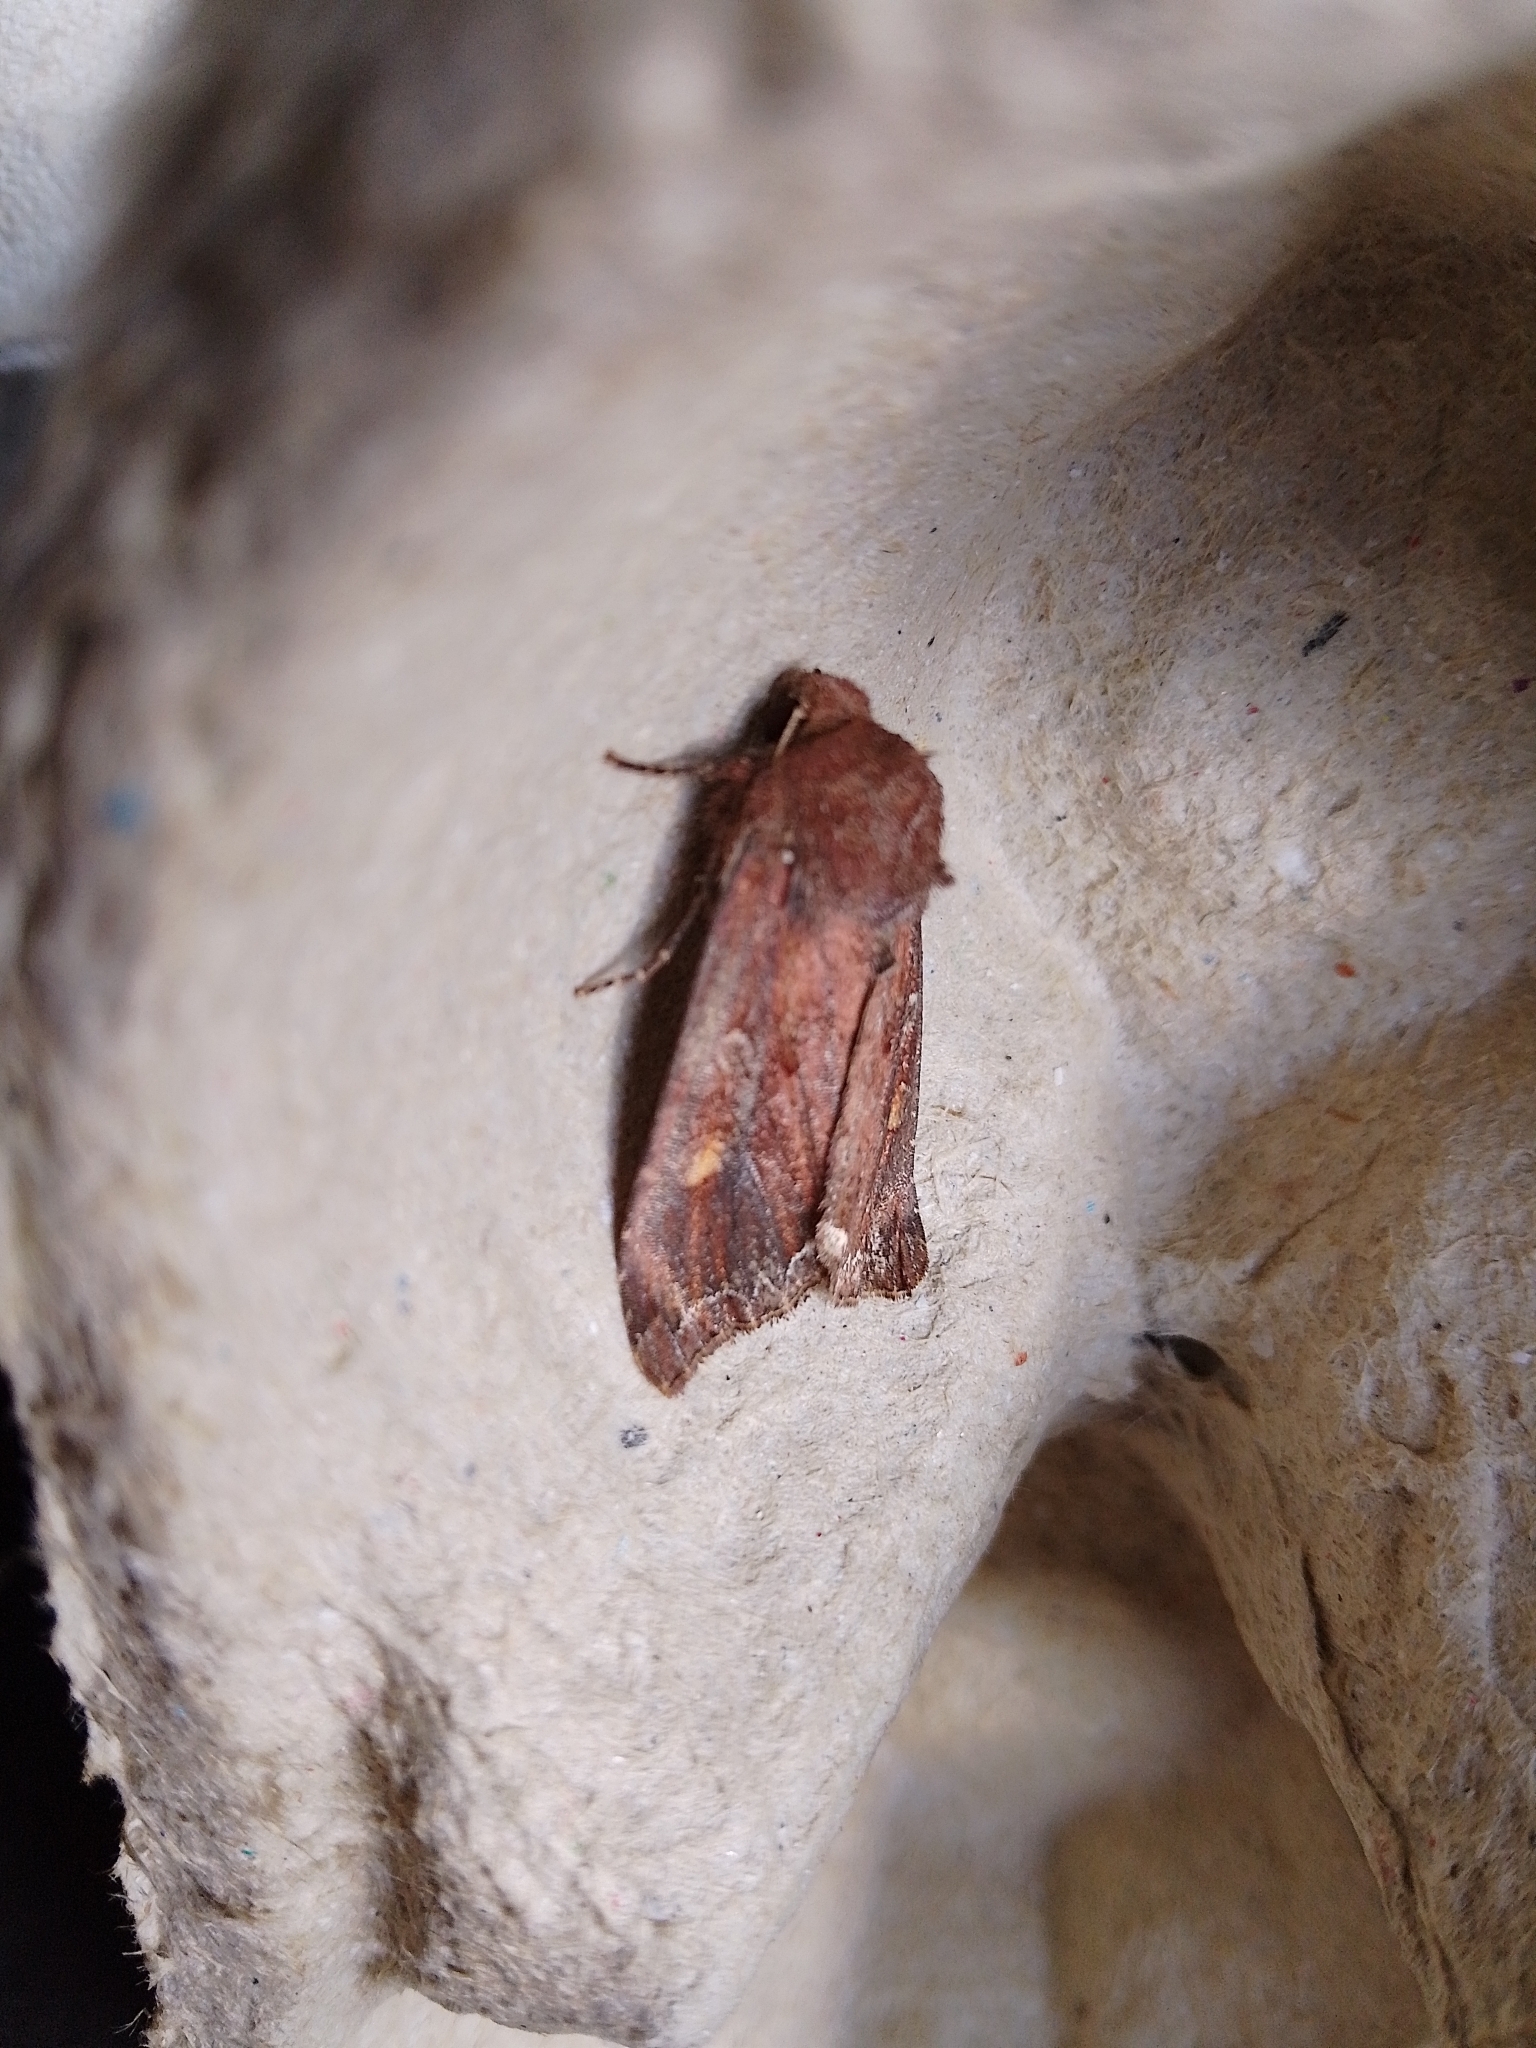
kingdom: Animalia
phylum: Arthropoda
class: Insecta
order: Lepidoptera
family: Noctuidae
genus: Lacanobia
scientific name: Lacanobia oleracea
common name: Bright-line brown-eye
